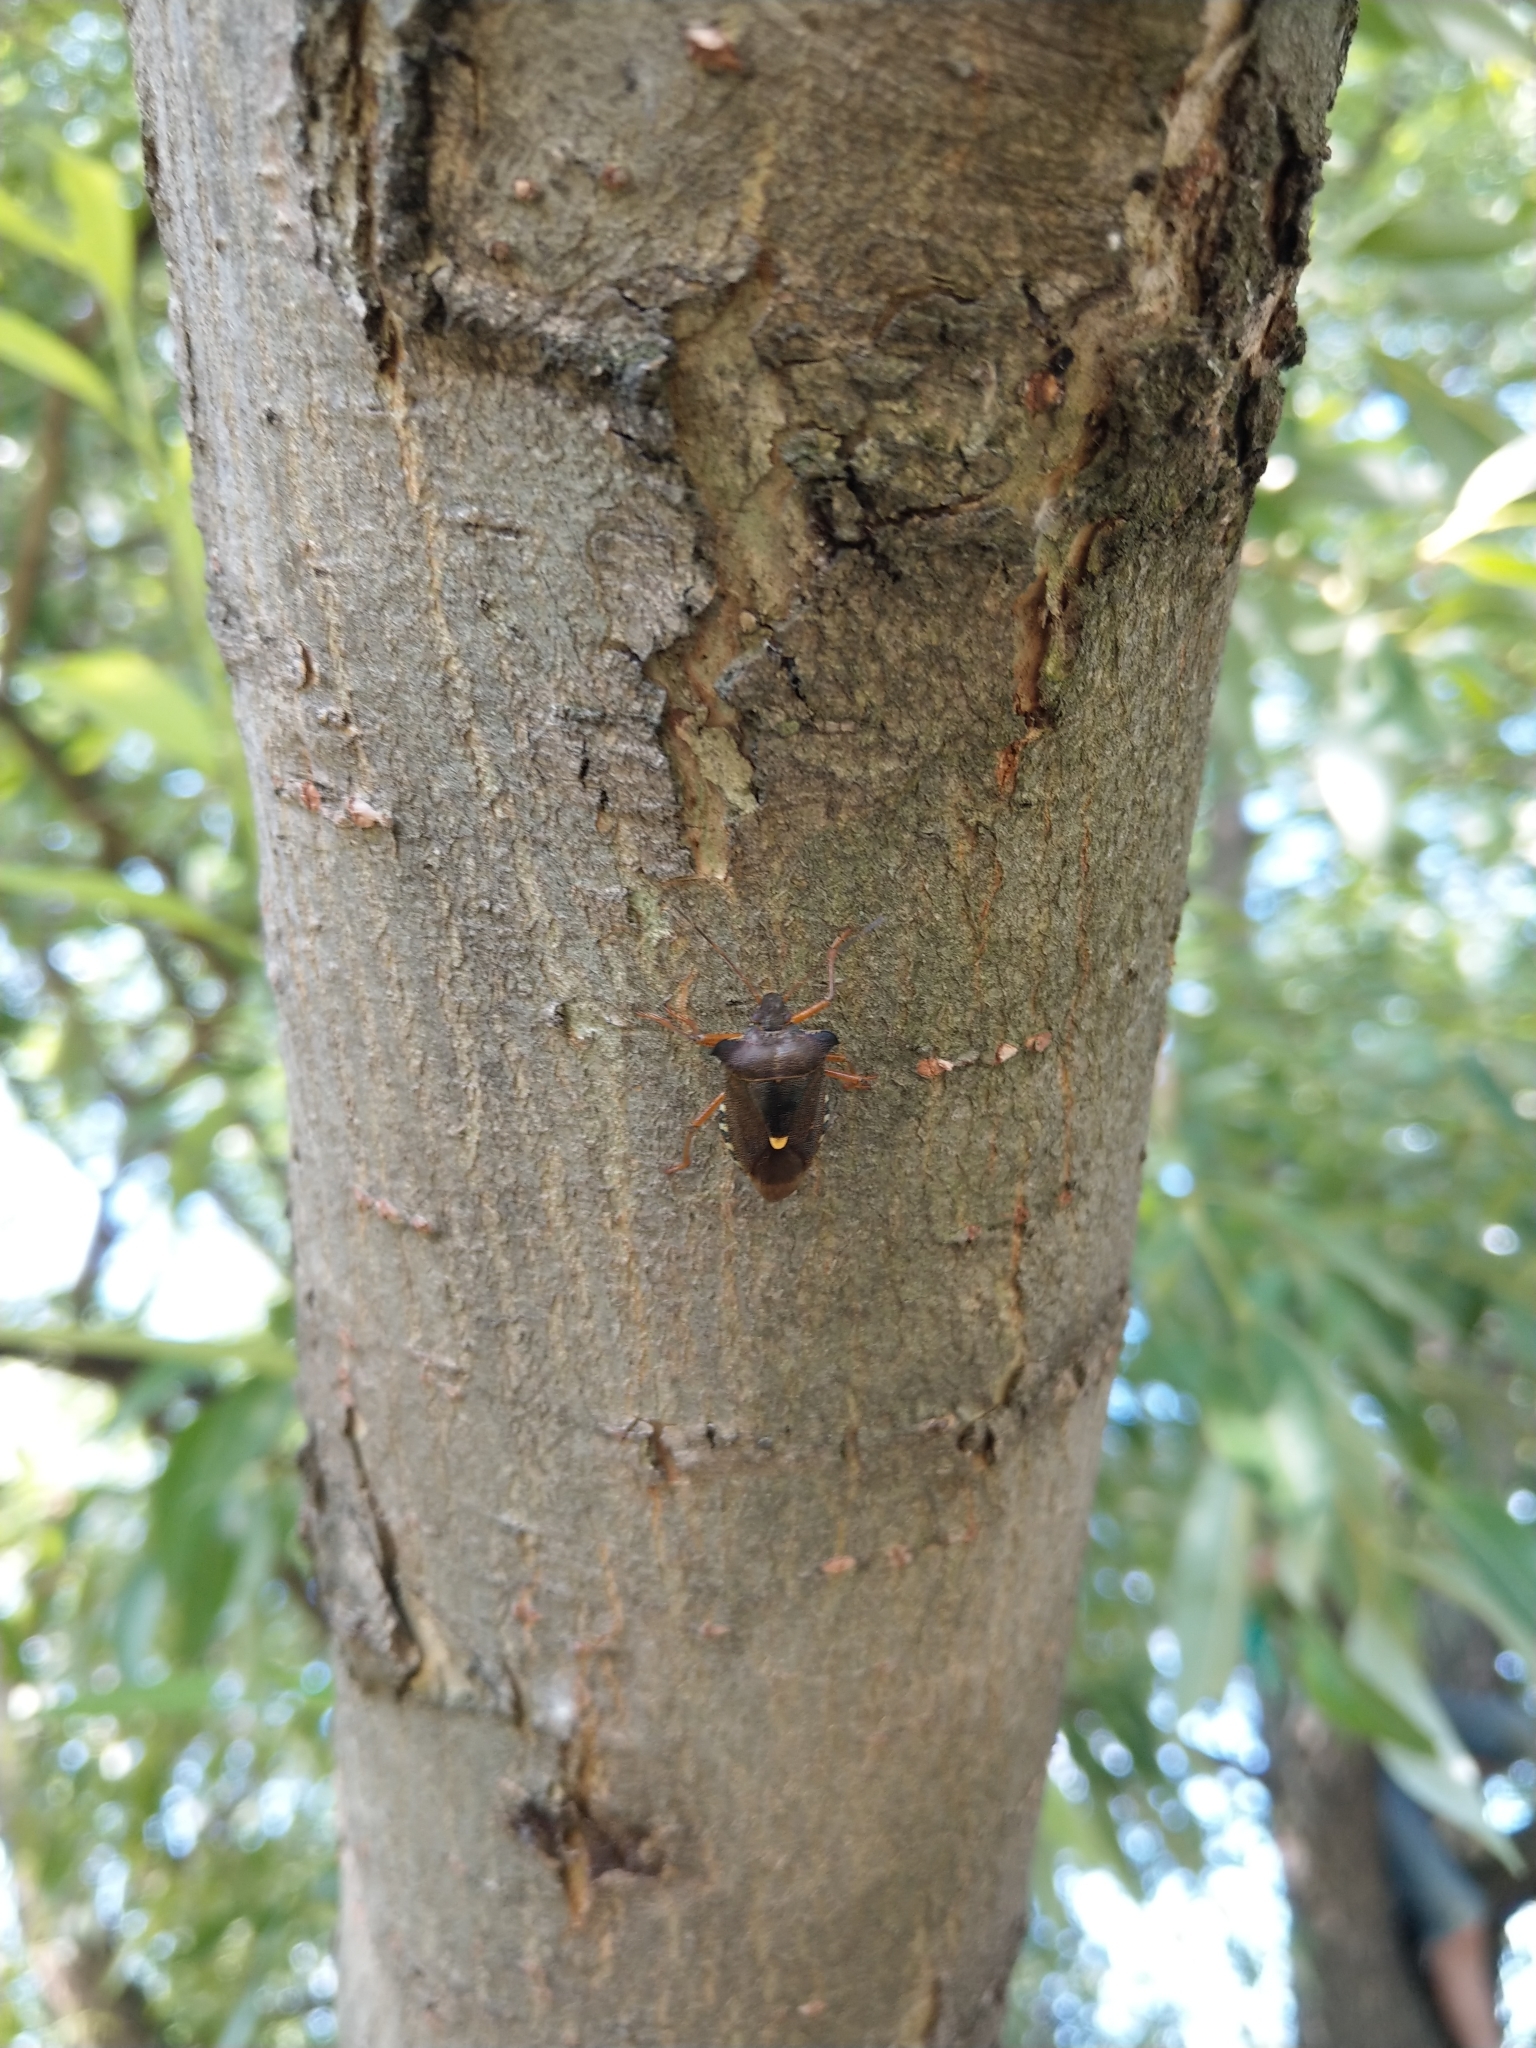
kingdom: Animalia
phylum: Arthropoda
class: Insecta
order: Hemiptera
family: Pentatomidae
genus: Pentatoma
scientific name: Pentatoma rufipes
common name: Forest bug
